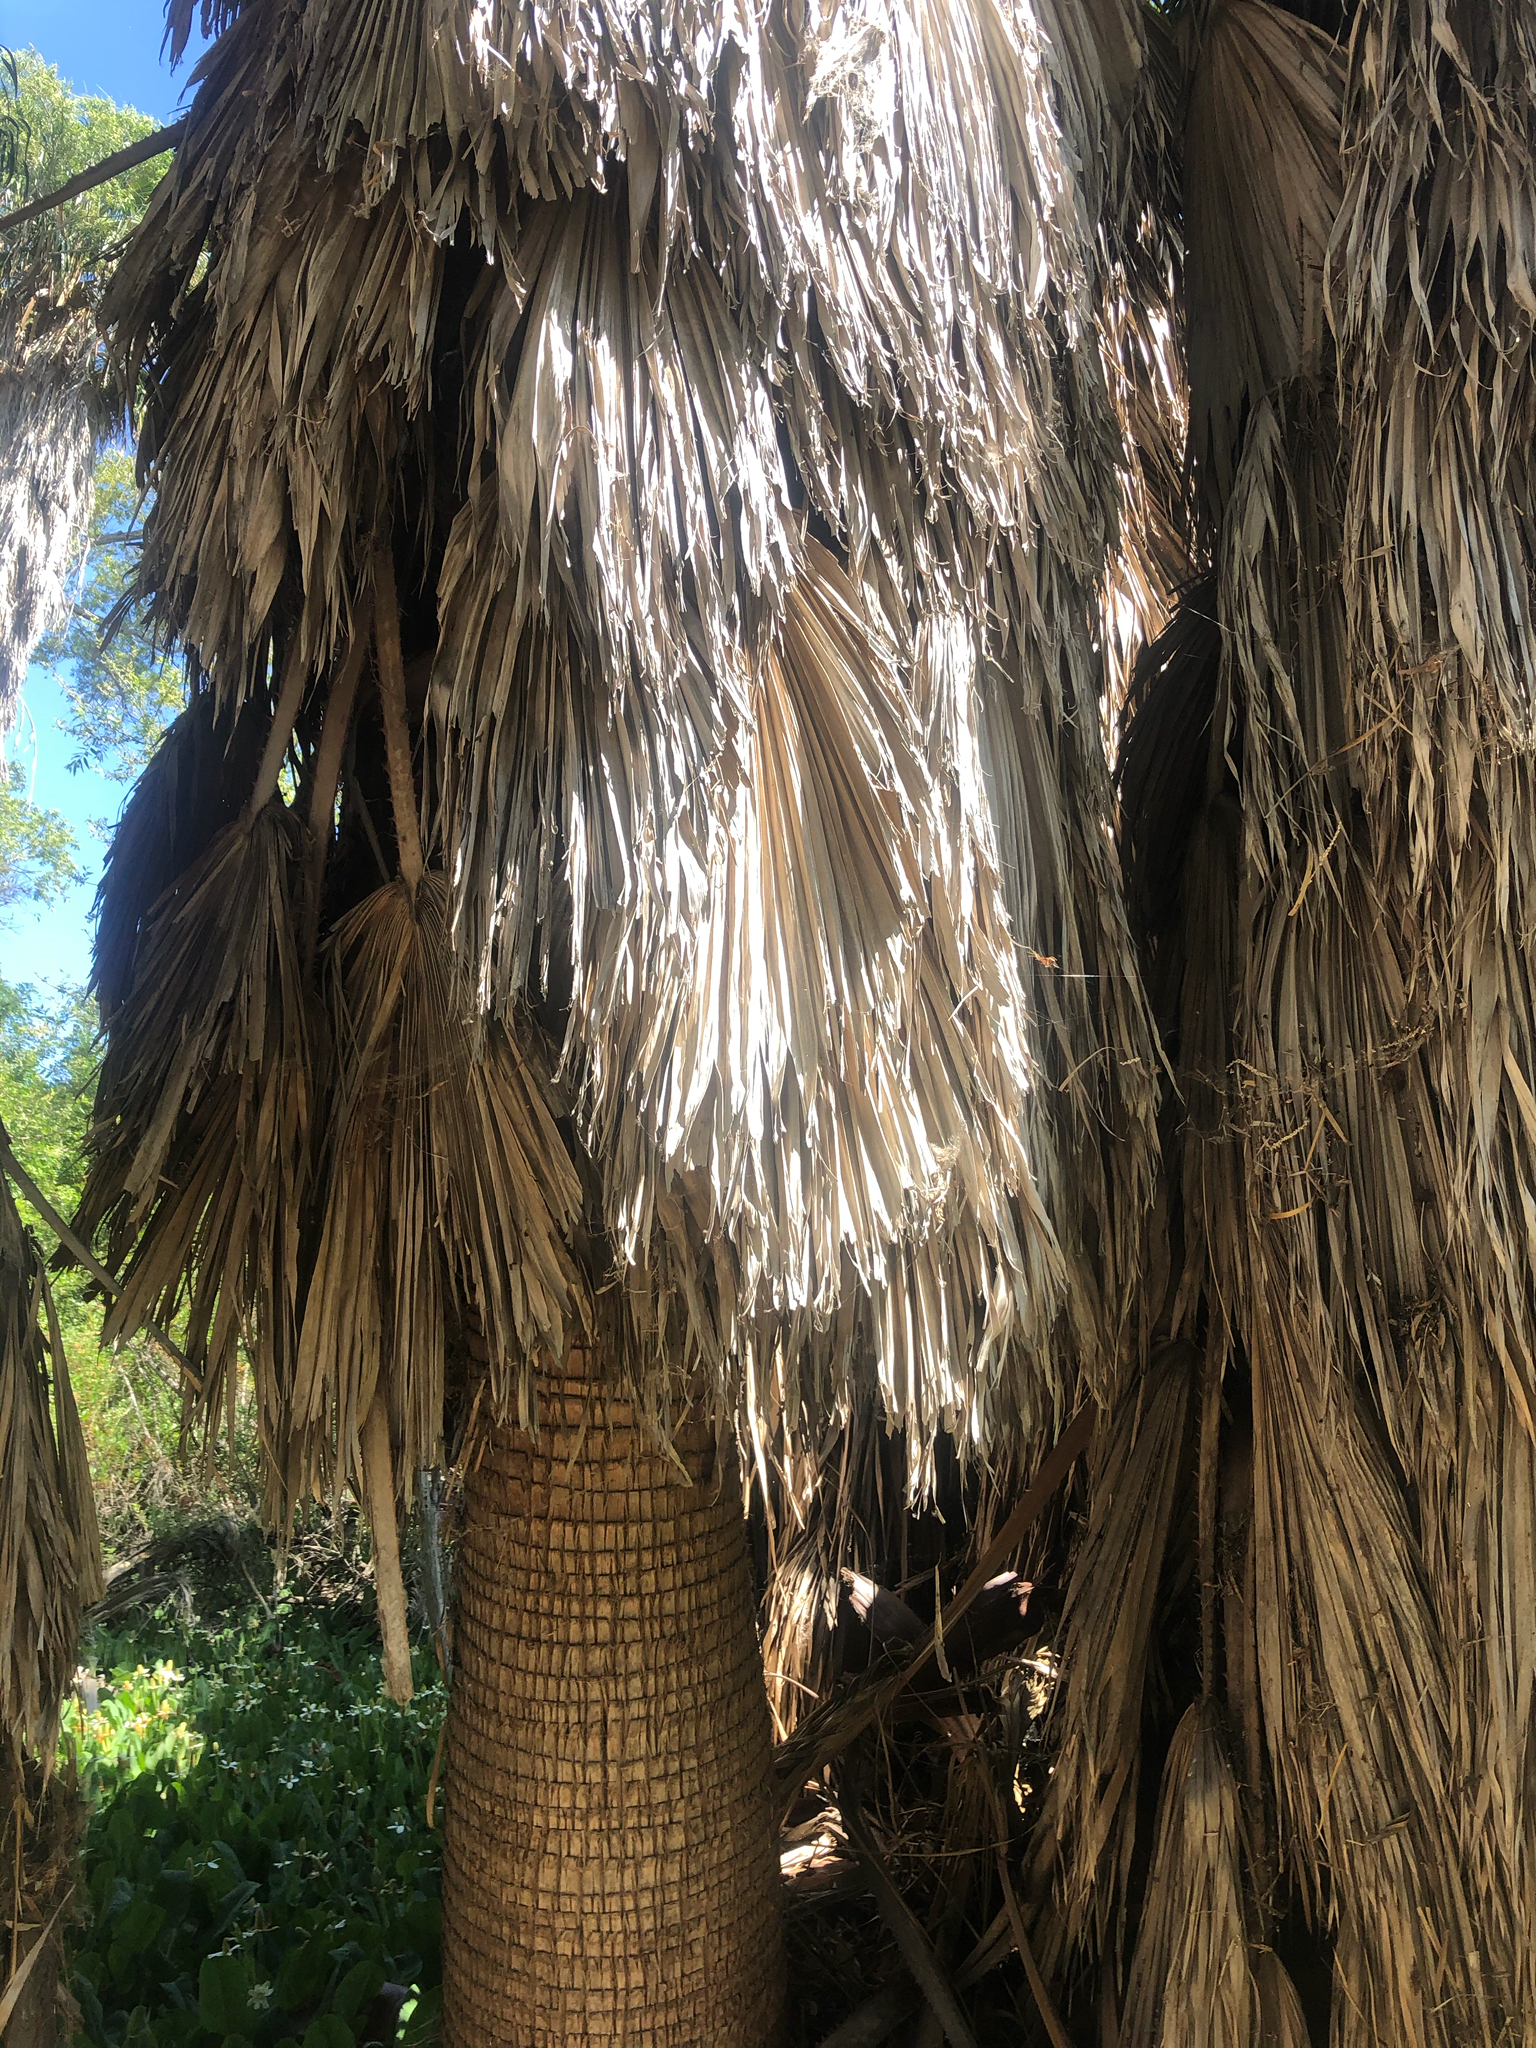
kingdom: Plantae
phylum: Tracheophyta
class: Liliopsida
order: Arecales
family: Arecaceae
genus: Washingtonia
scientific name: Washingtonia filifera
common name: California fan palm
